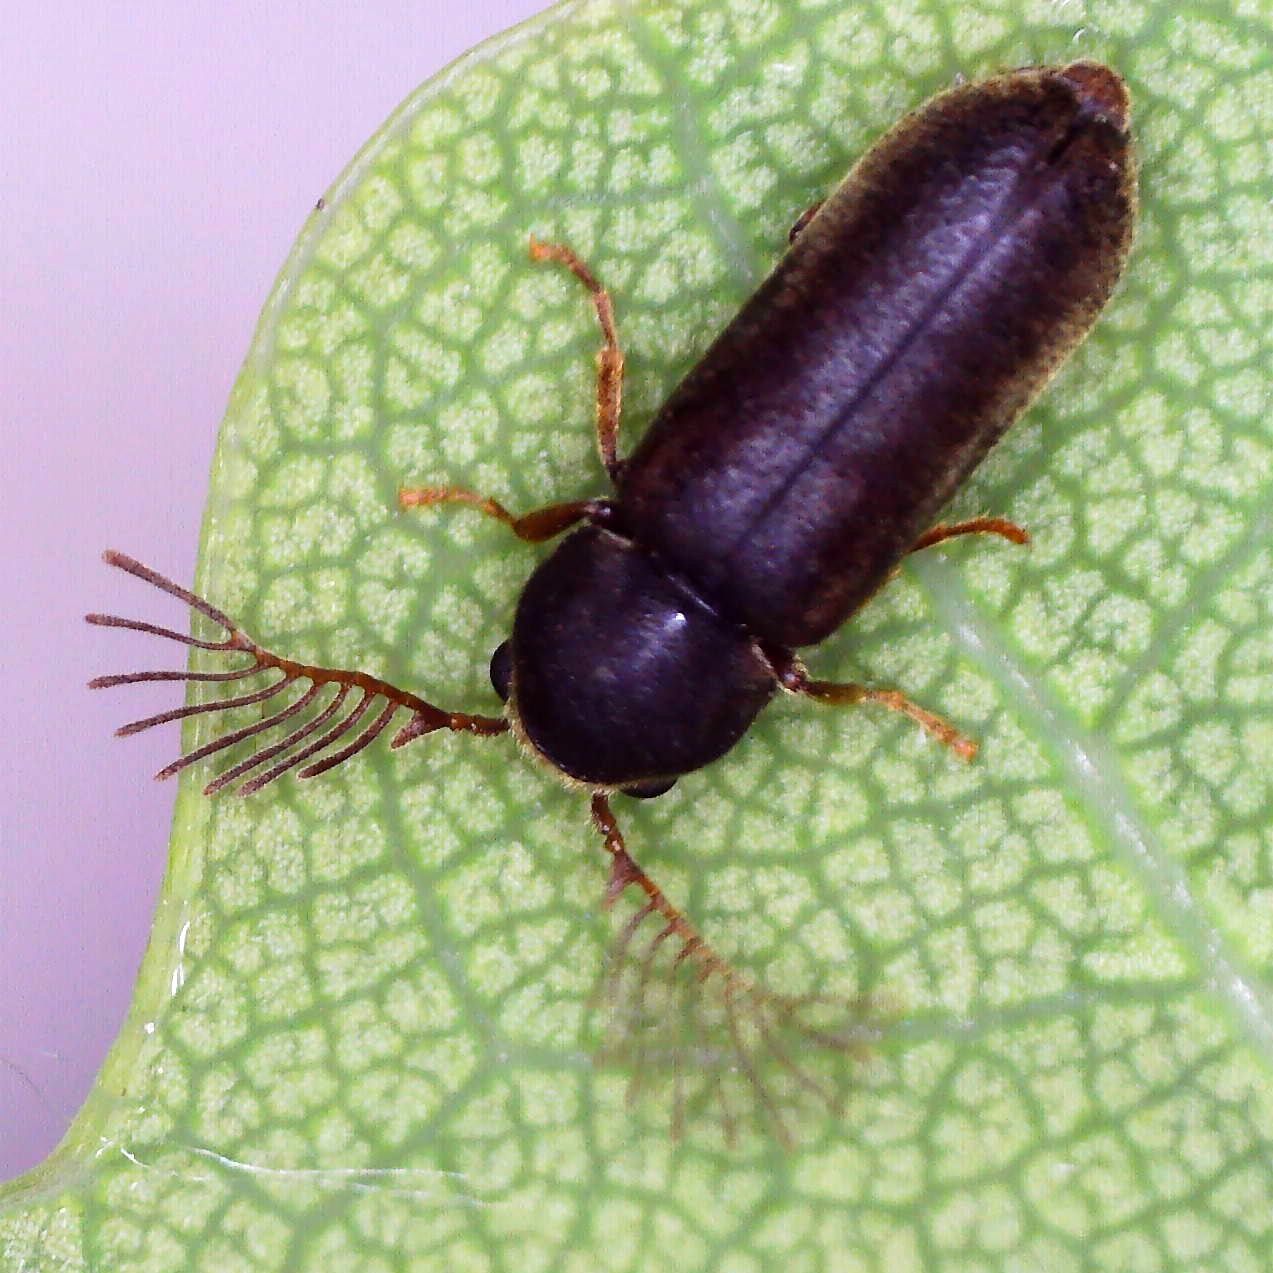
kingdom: Animalia
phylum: Arthropoda
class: Insecta
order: Coleoptera
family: Anobiidae
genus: Ptilinus
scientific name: Ptilinus pectinicornis
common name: Fan-bearing wood-borer
